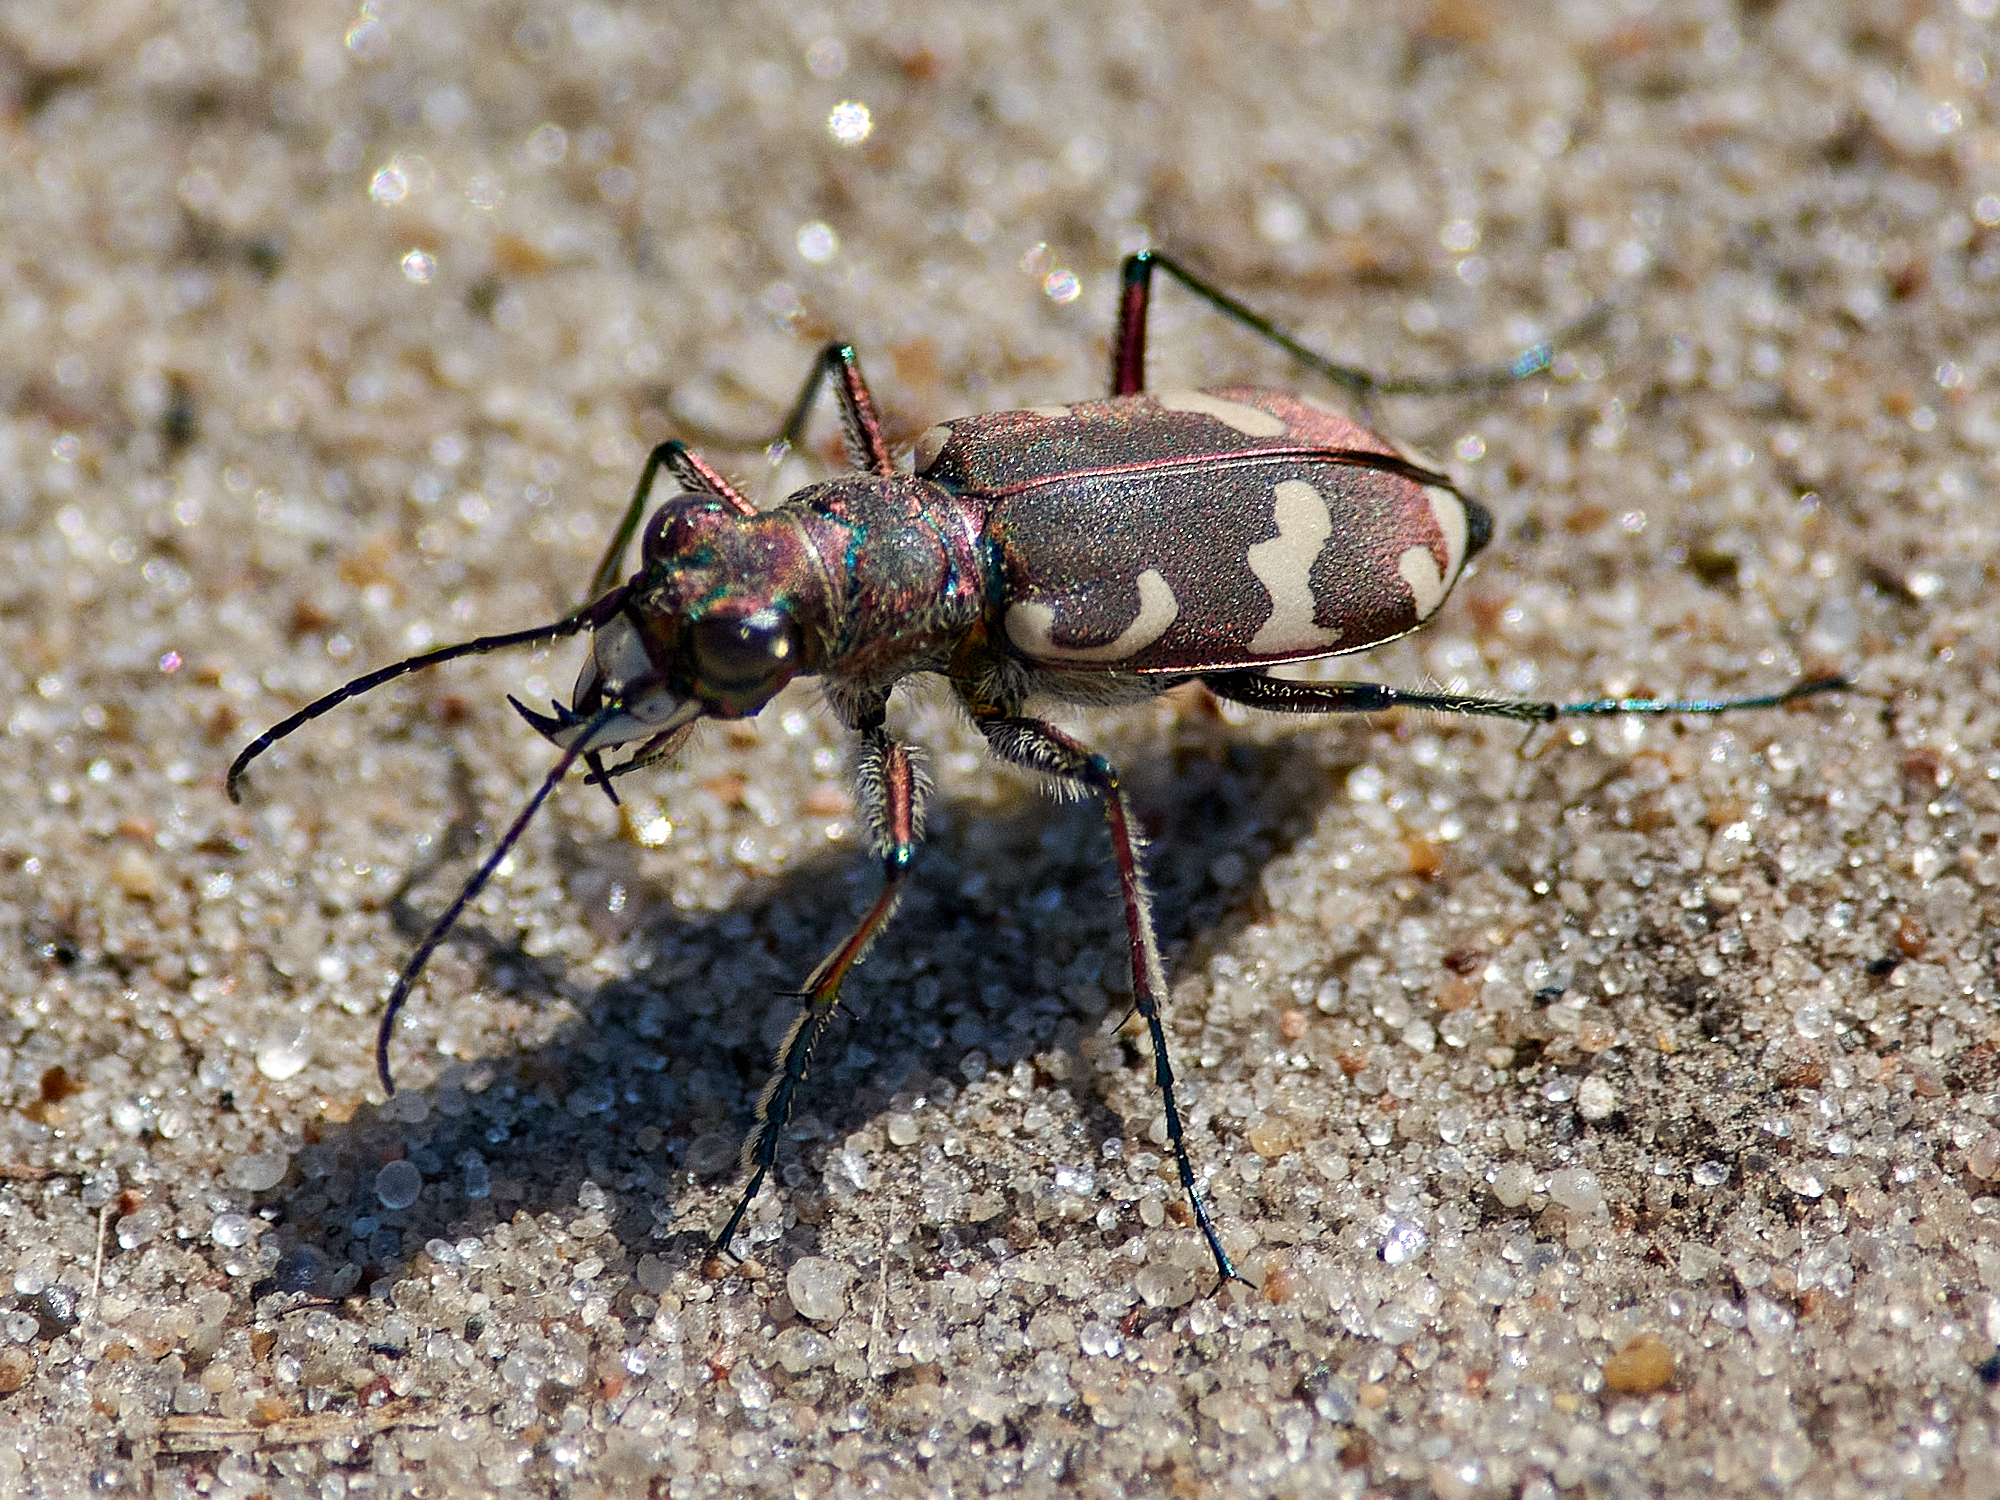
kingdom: Animalia
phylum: Arthropoda
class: Insecta
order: Coleoptera
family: Carabidae
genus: Cicindela
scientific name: Cicindela hybrida
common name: Northern dune tiger beetle
